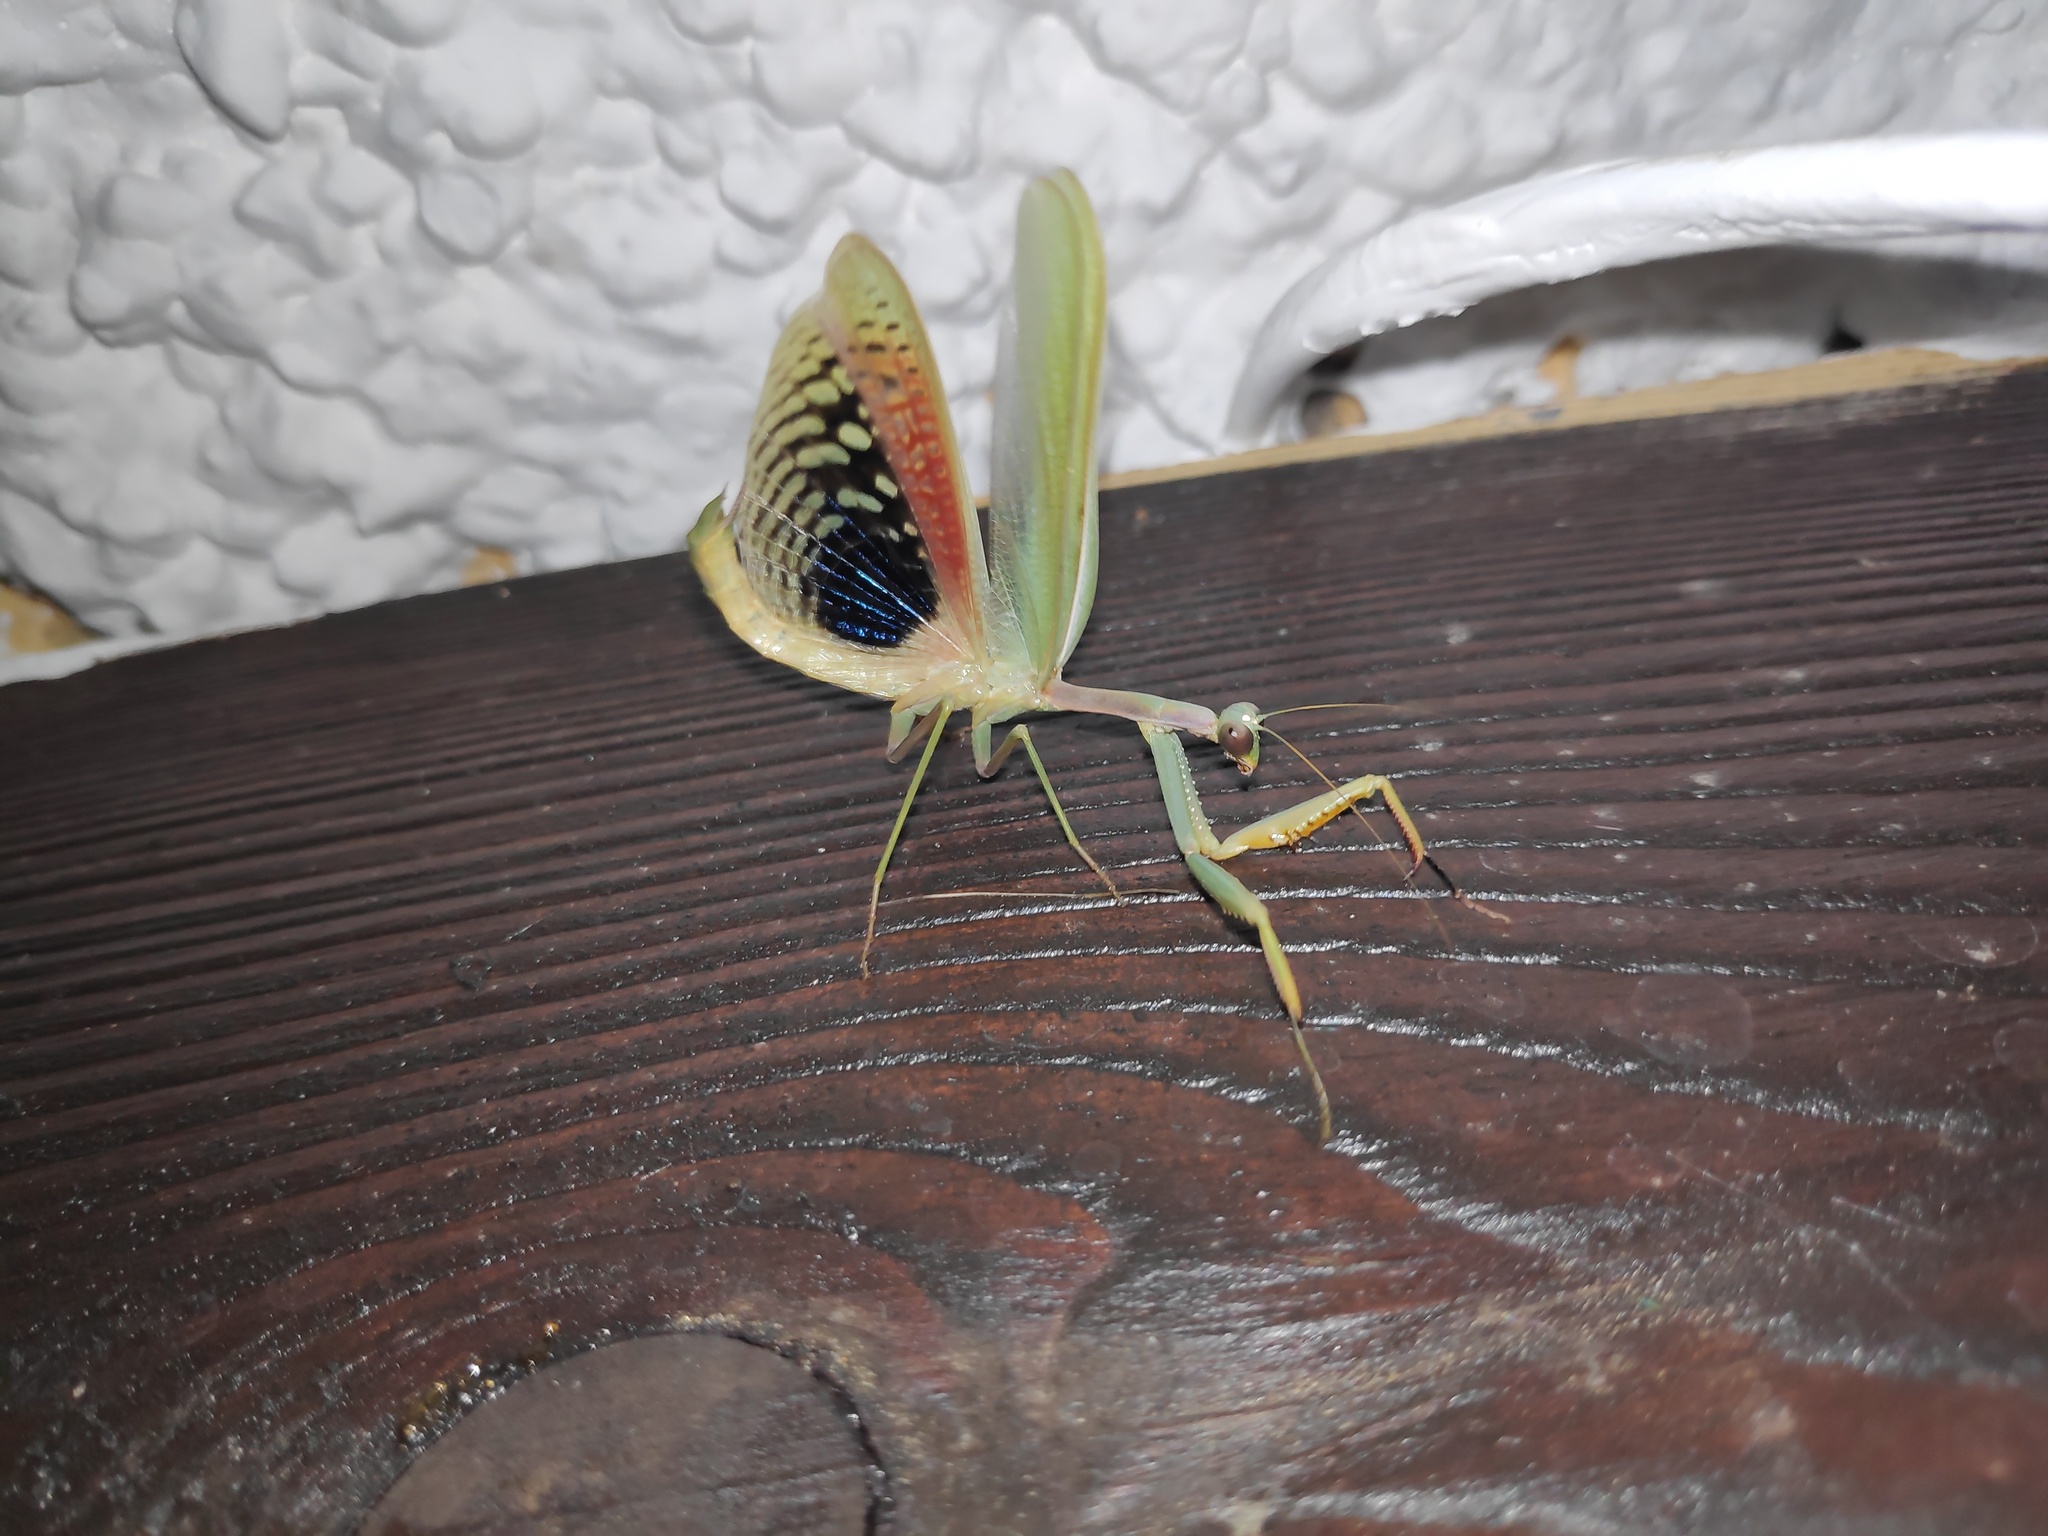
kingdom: Animalia
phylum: Arthropoda
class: Insecta
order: Mantodea
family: Eremiaphilidae
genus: Iris
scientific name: Iris oratoria
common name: Mediterranean mantis
